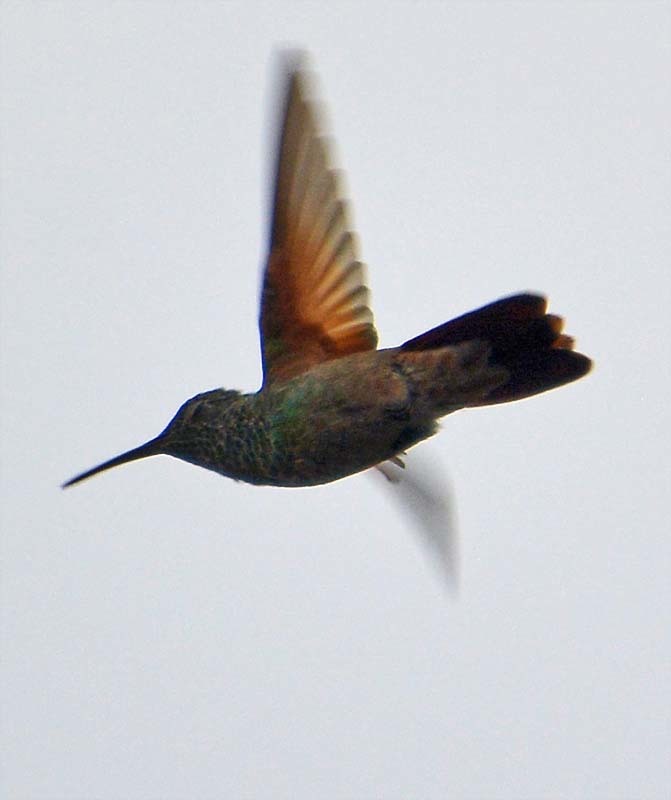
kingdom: Animalia
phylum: Chordata
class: Aves
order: Apodiformes
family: Trochilidae
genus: Saucerottia
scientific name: Saucerottia beryllina
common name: Berylline hummingbird
